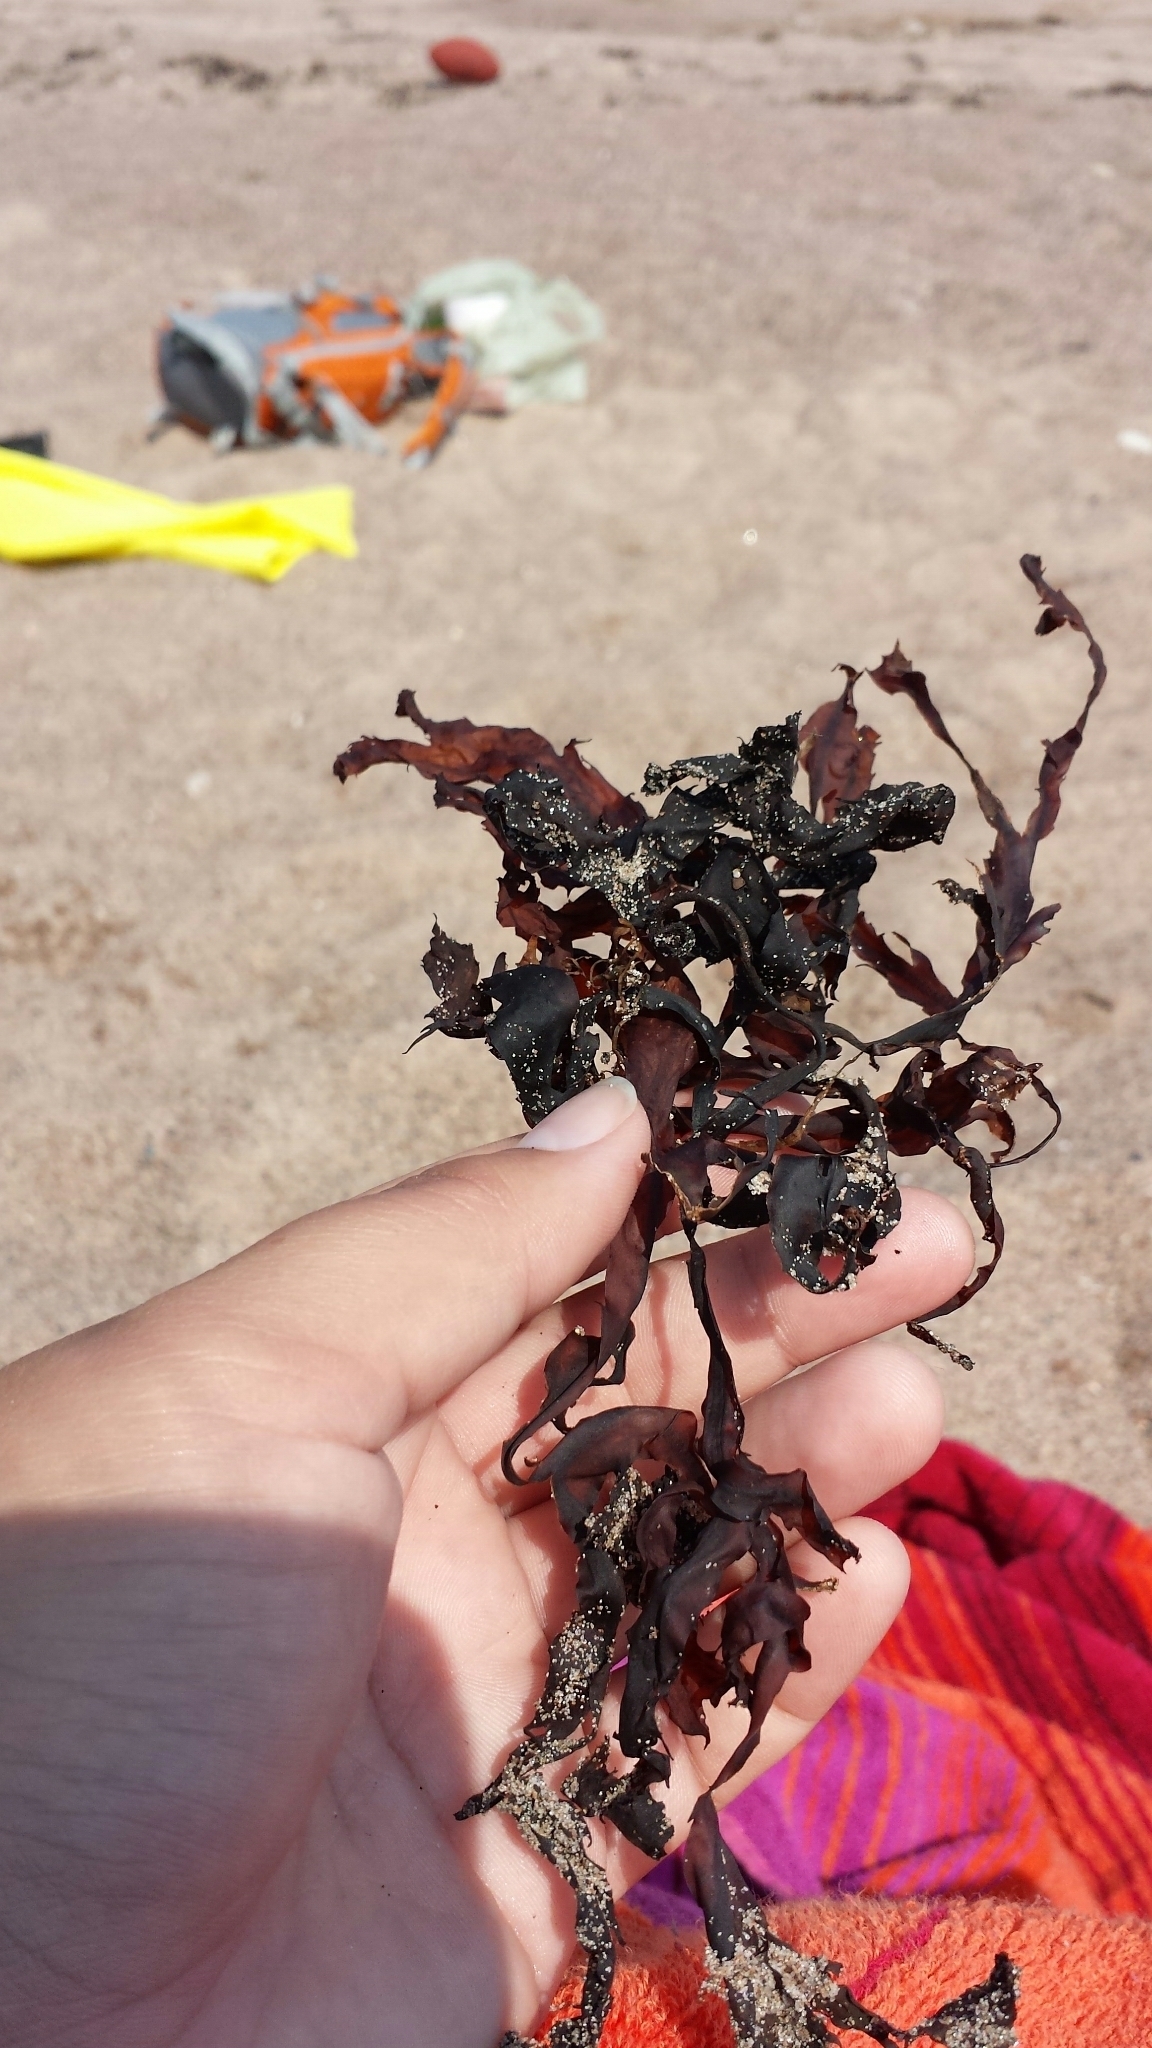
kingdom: Chromista
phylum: Ochrophyta
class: Phaeophyceae
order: Fucales
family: Fucaceae
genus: Fucus
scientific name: Fucus serratus
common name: Toothed wrack
